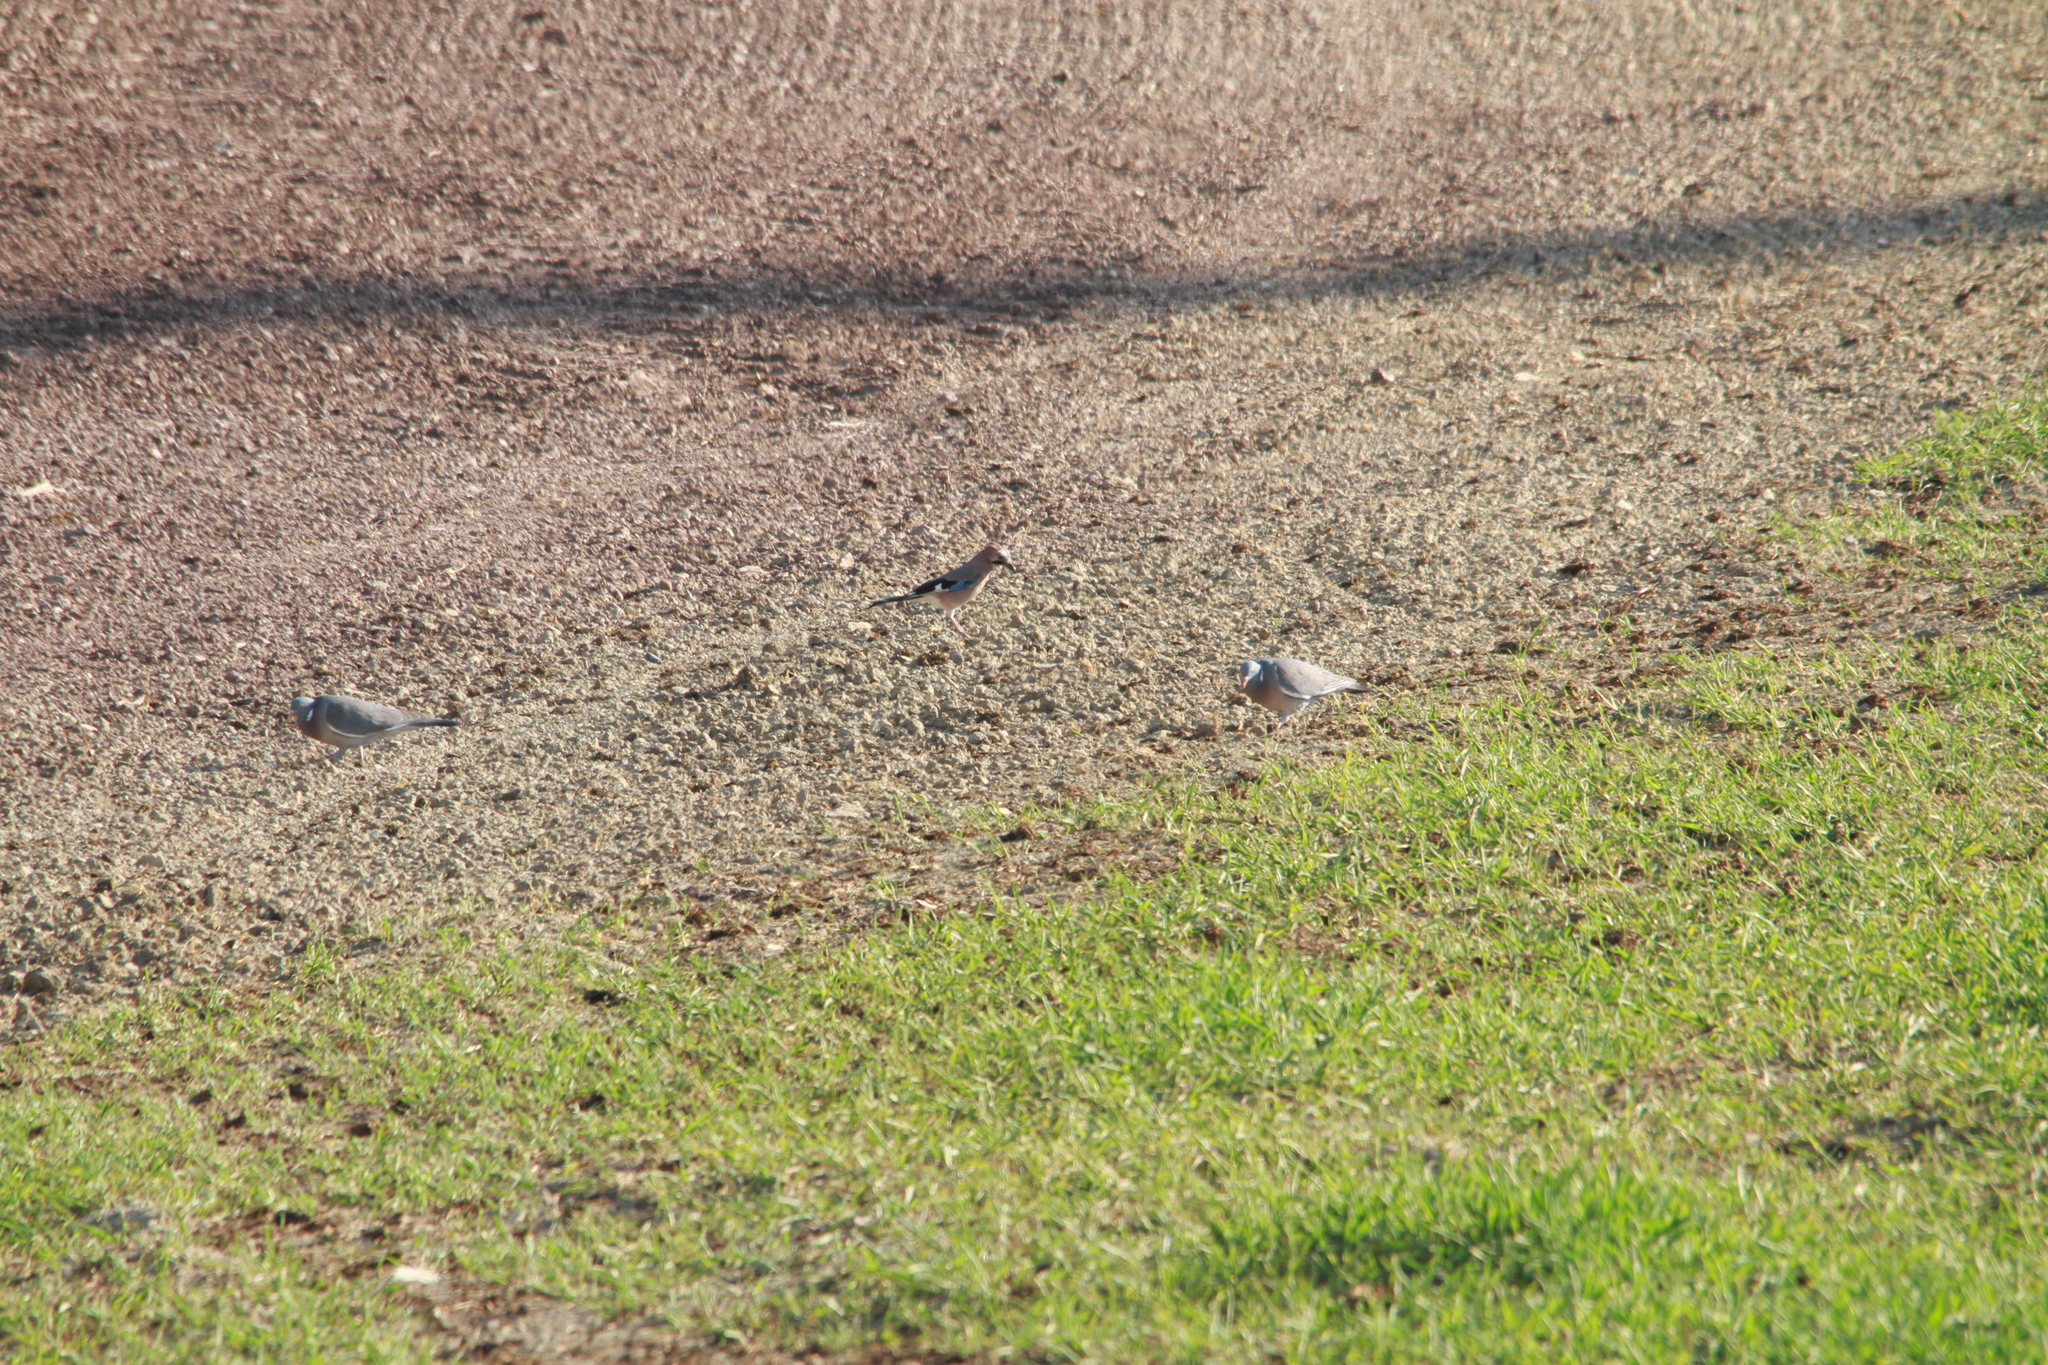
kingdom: Animalia
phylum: Chordata
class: Aves
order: Passeriformes
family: Corvidae
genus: Garrulus
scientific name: Garrulus glandarius
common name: Eurasian jay
